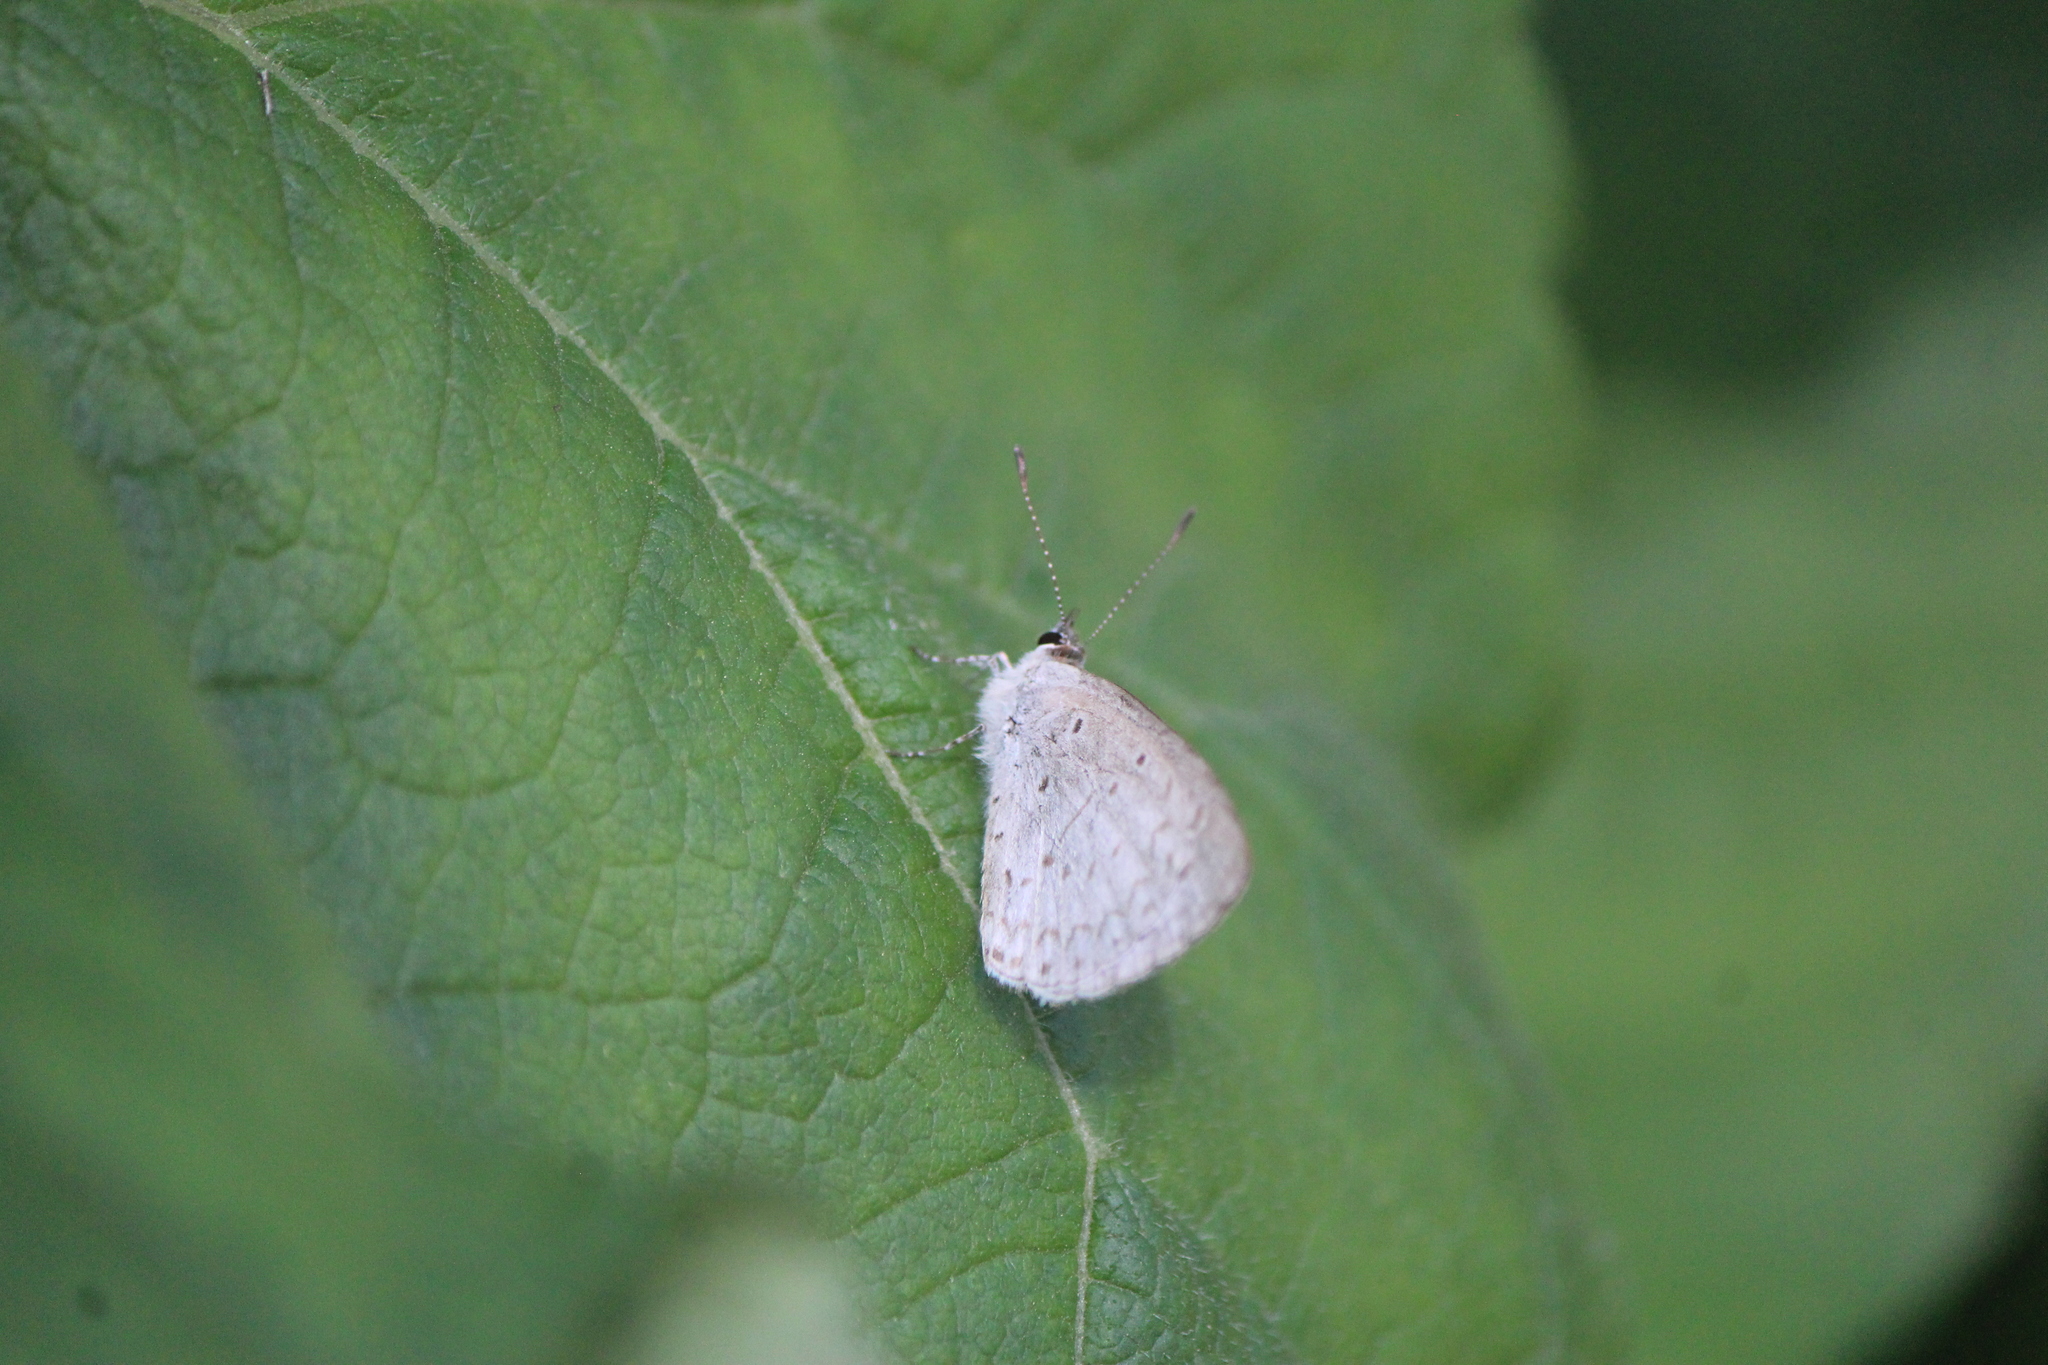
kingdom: Animalia
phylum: Arthropoda
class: Insecta
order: Lepidoptera
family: Lycaenidae
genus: Celastrina
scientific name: Celastrina ladon
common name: Spring azure
